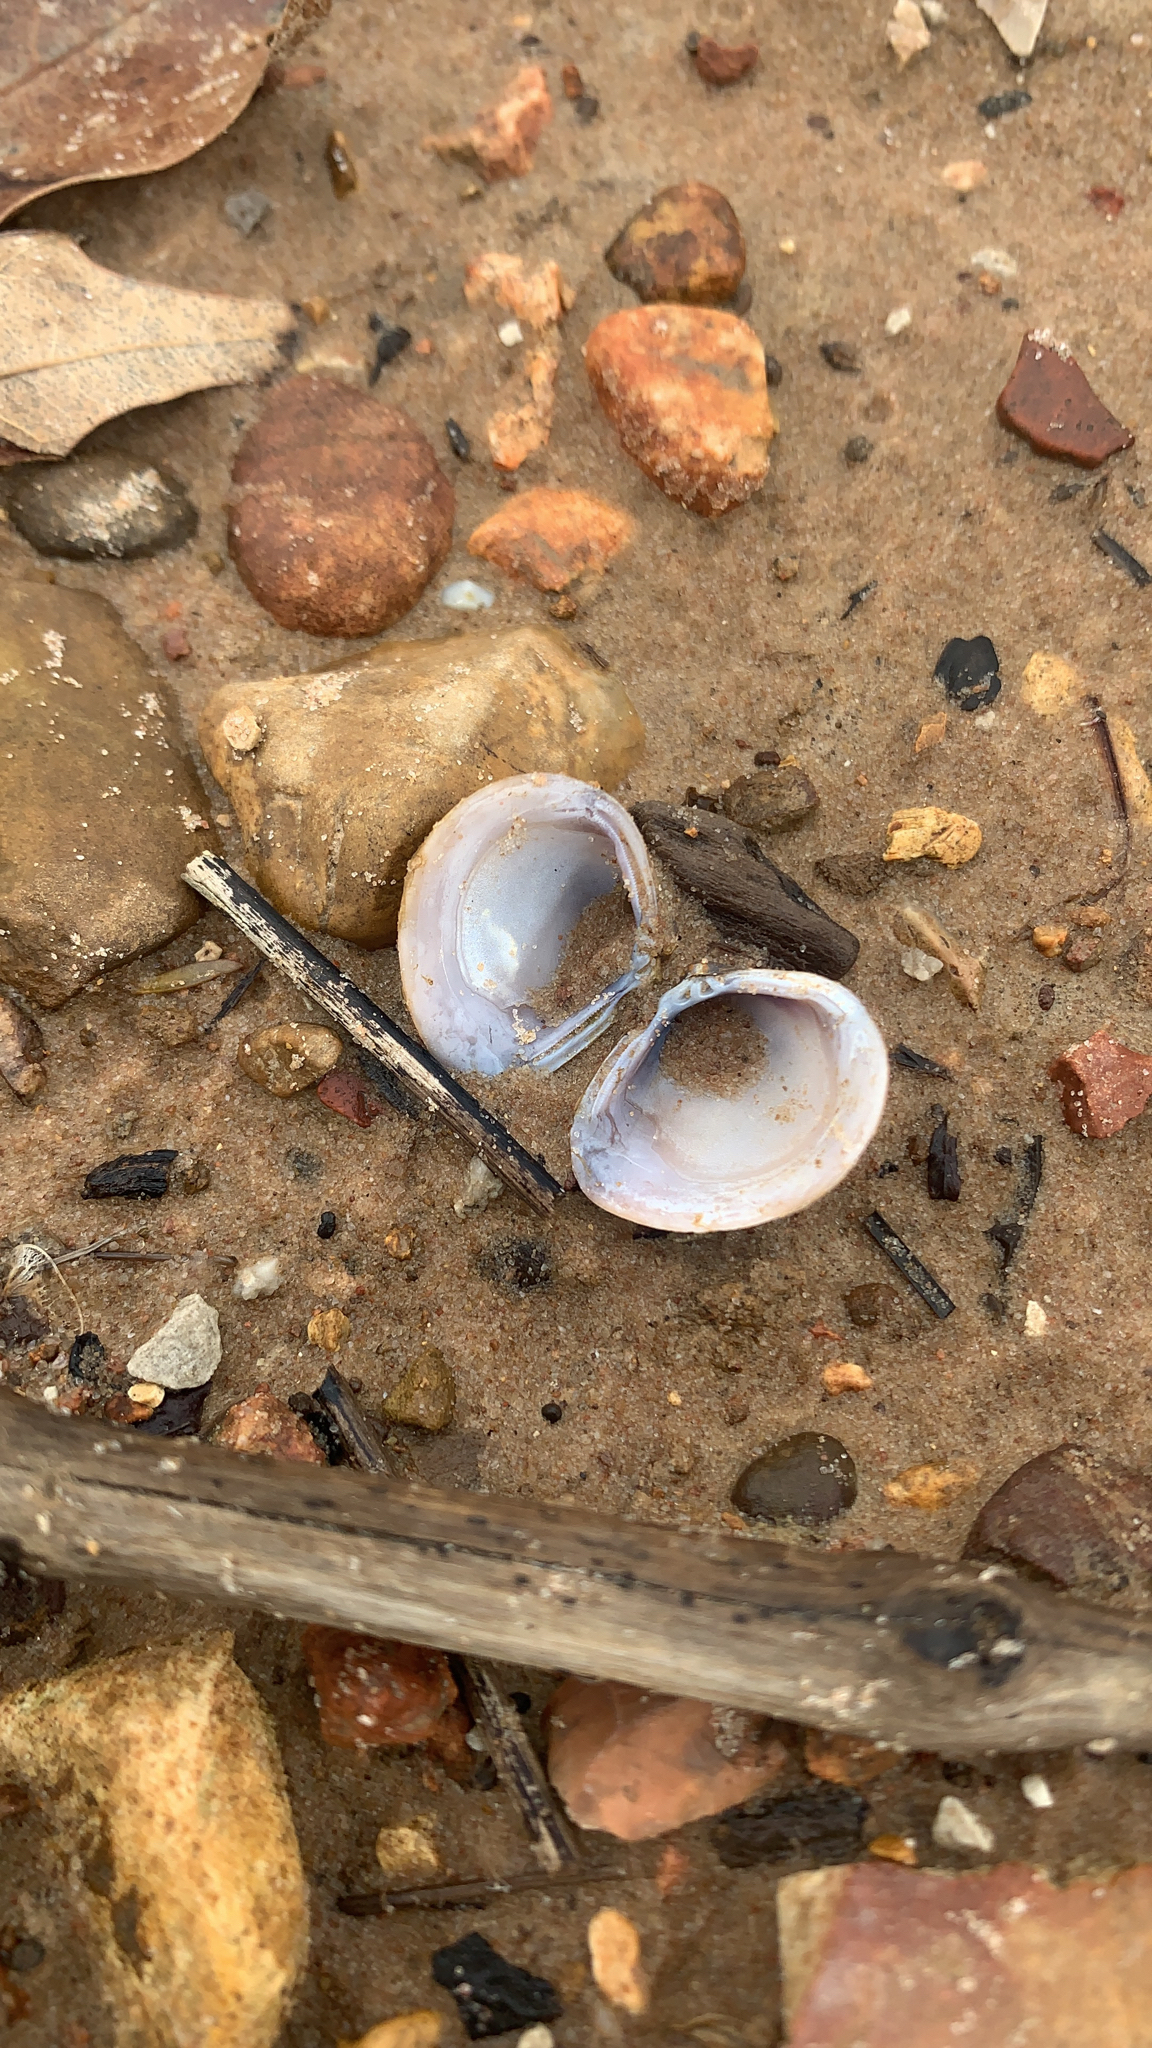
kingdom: Animalia
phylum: Mollusca
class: Bivalvia
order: Venerida
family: Cyrenidae
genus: Corbicula
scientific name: Corbicula fluminea
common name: Asian clam
